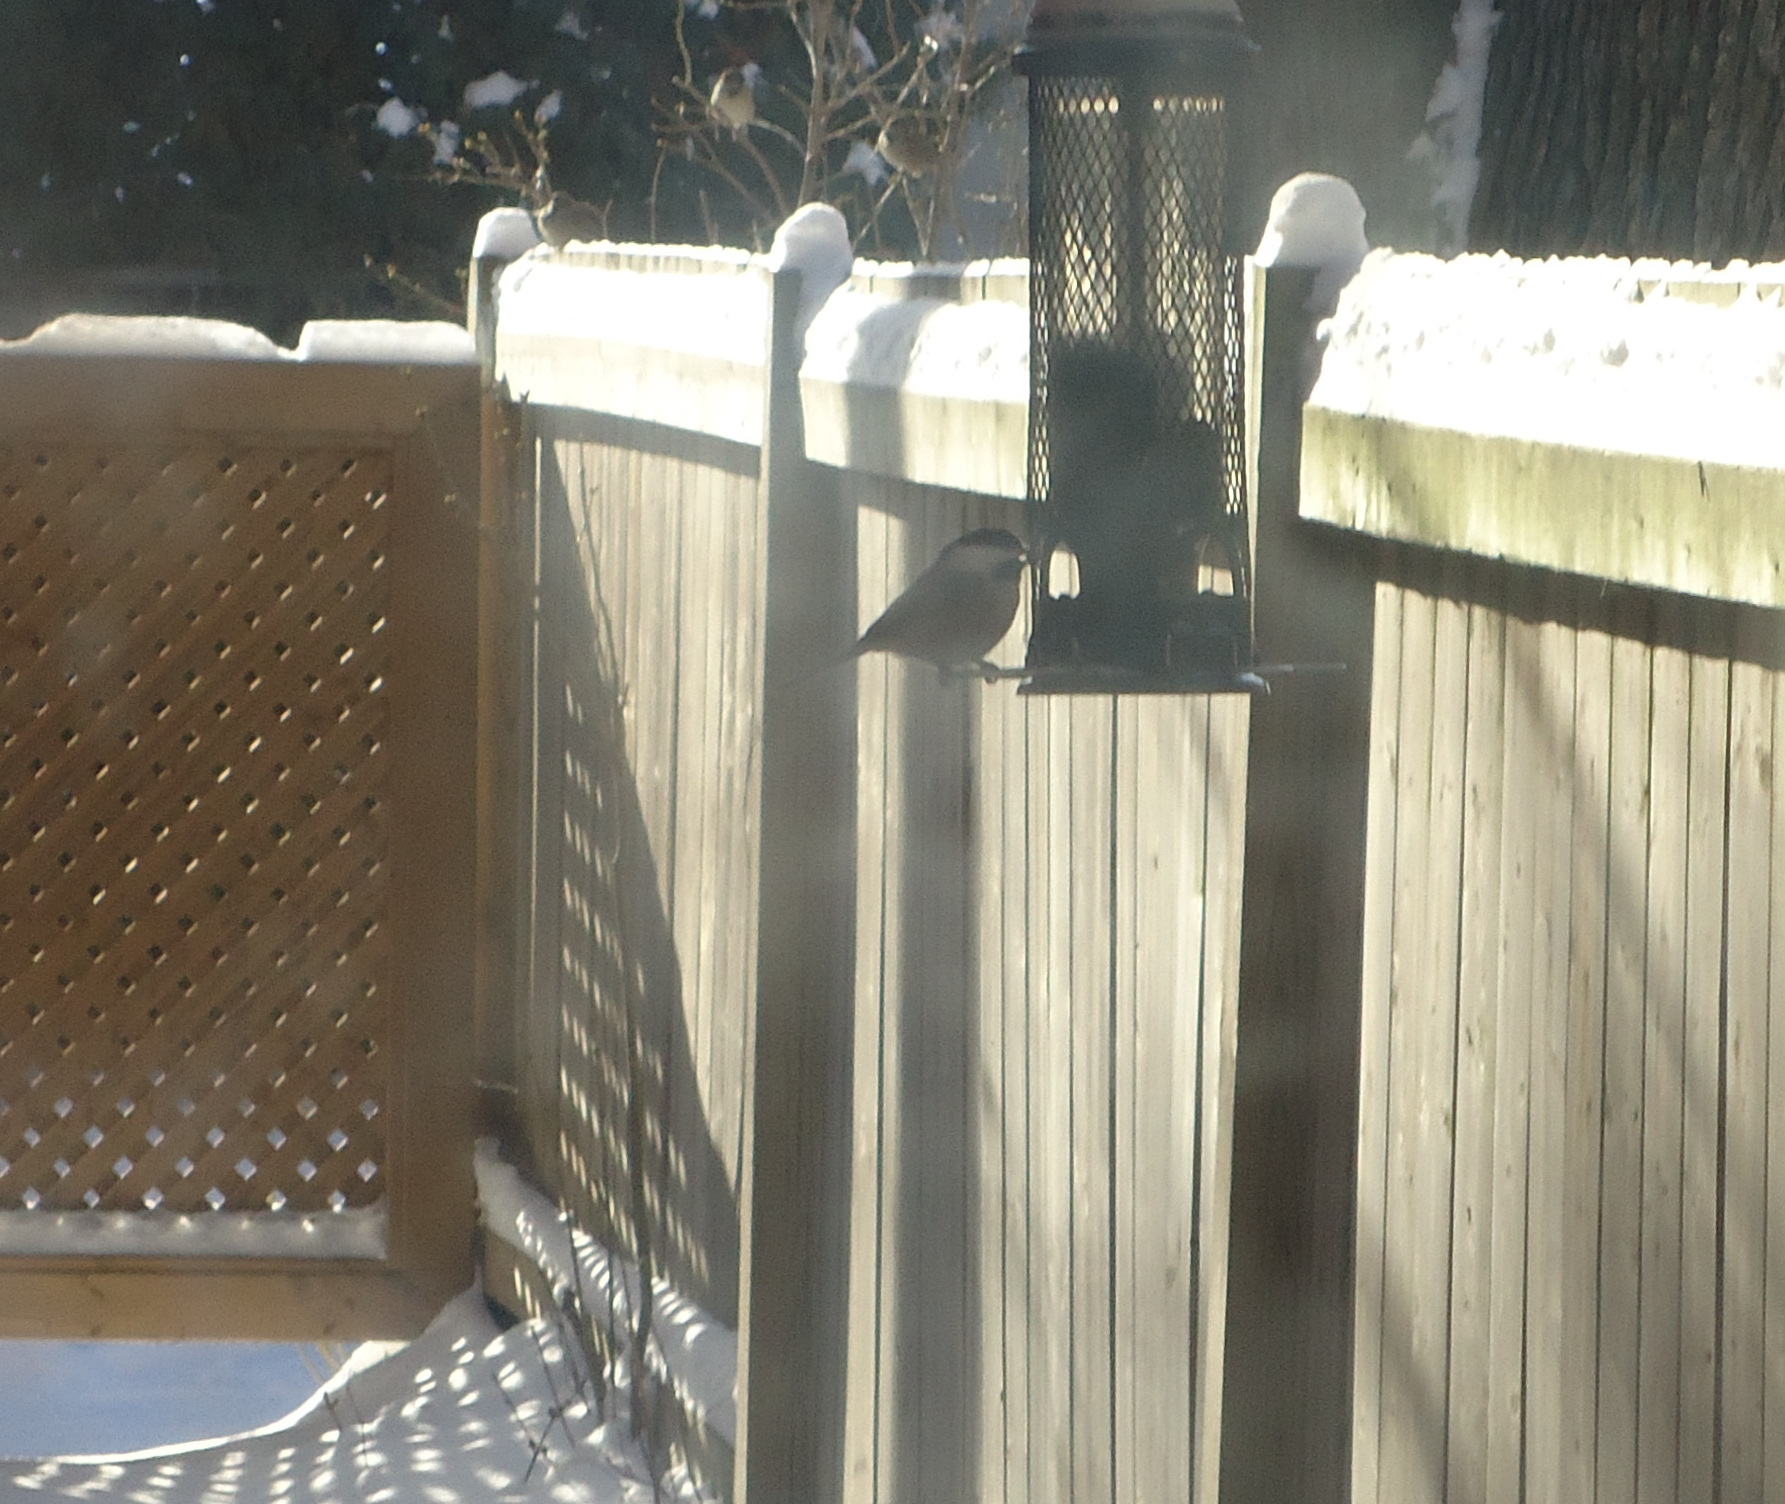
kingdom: Animalia
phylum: Chordata
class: Aves
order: Passeriformes
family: Paridae
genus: Poecile
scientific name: Poecile atricapillus
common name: Black-capped chickadee
